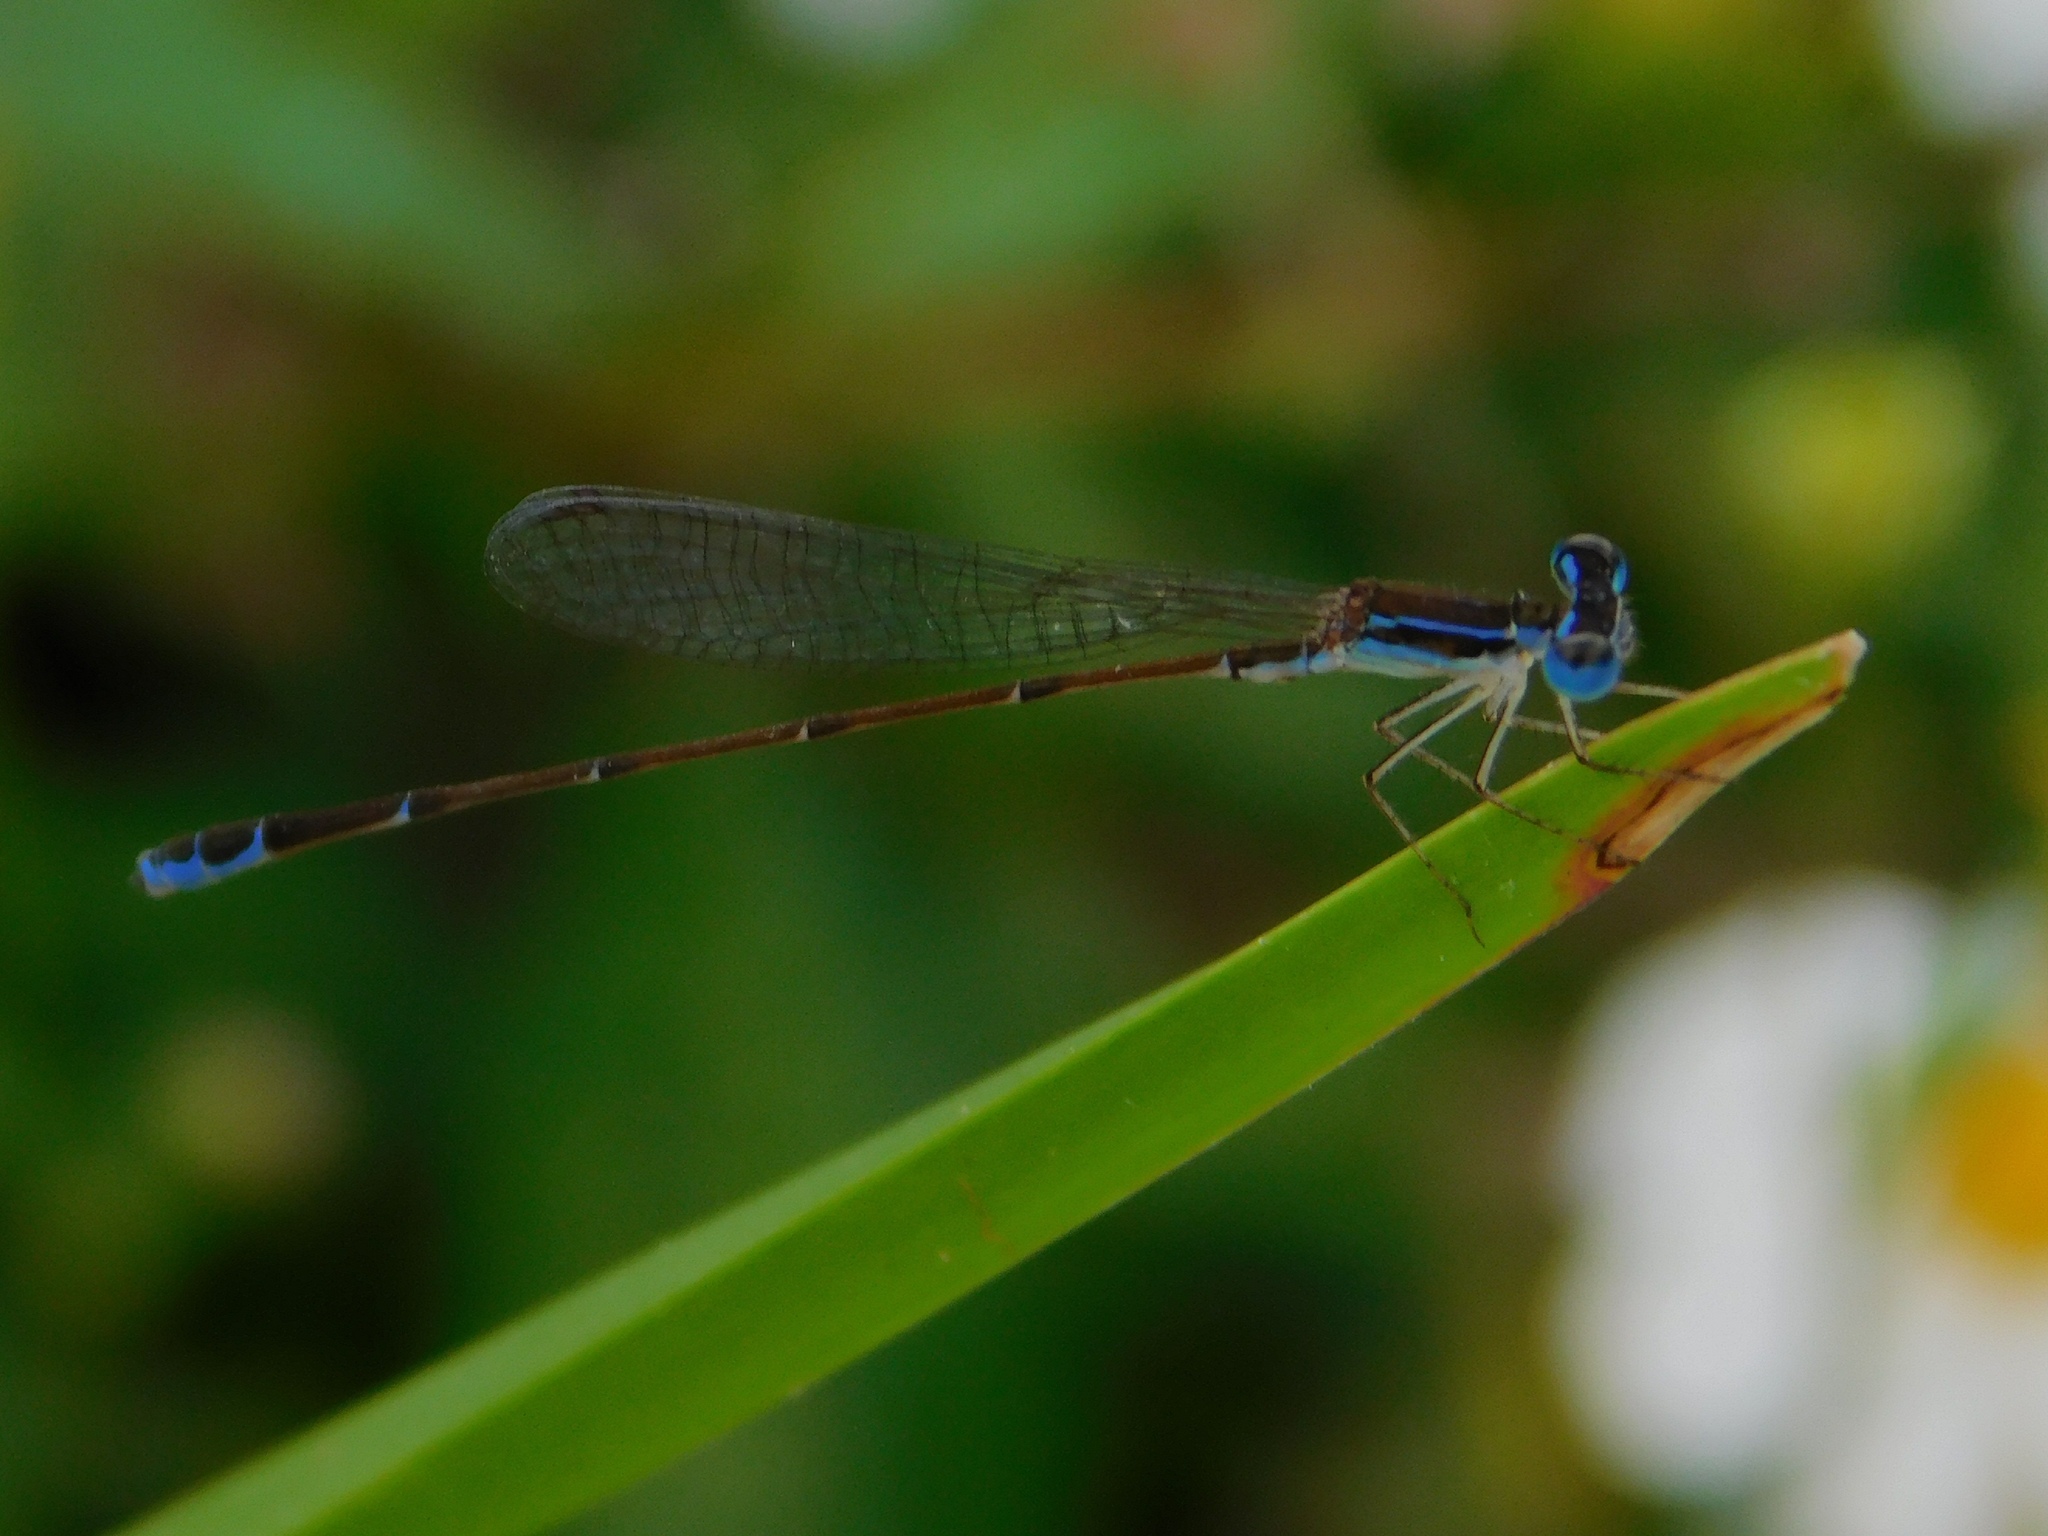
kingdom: Animalia
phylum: Arthropoda
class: Insecta
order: Odonata
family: Coenagrionidae
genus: Nehalennia
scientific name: Nehalennia pallidula
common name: Everglades sprite
